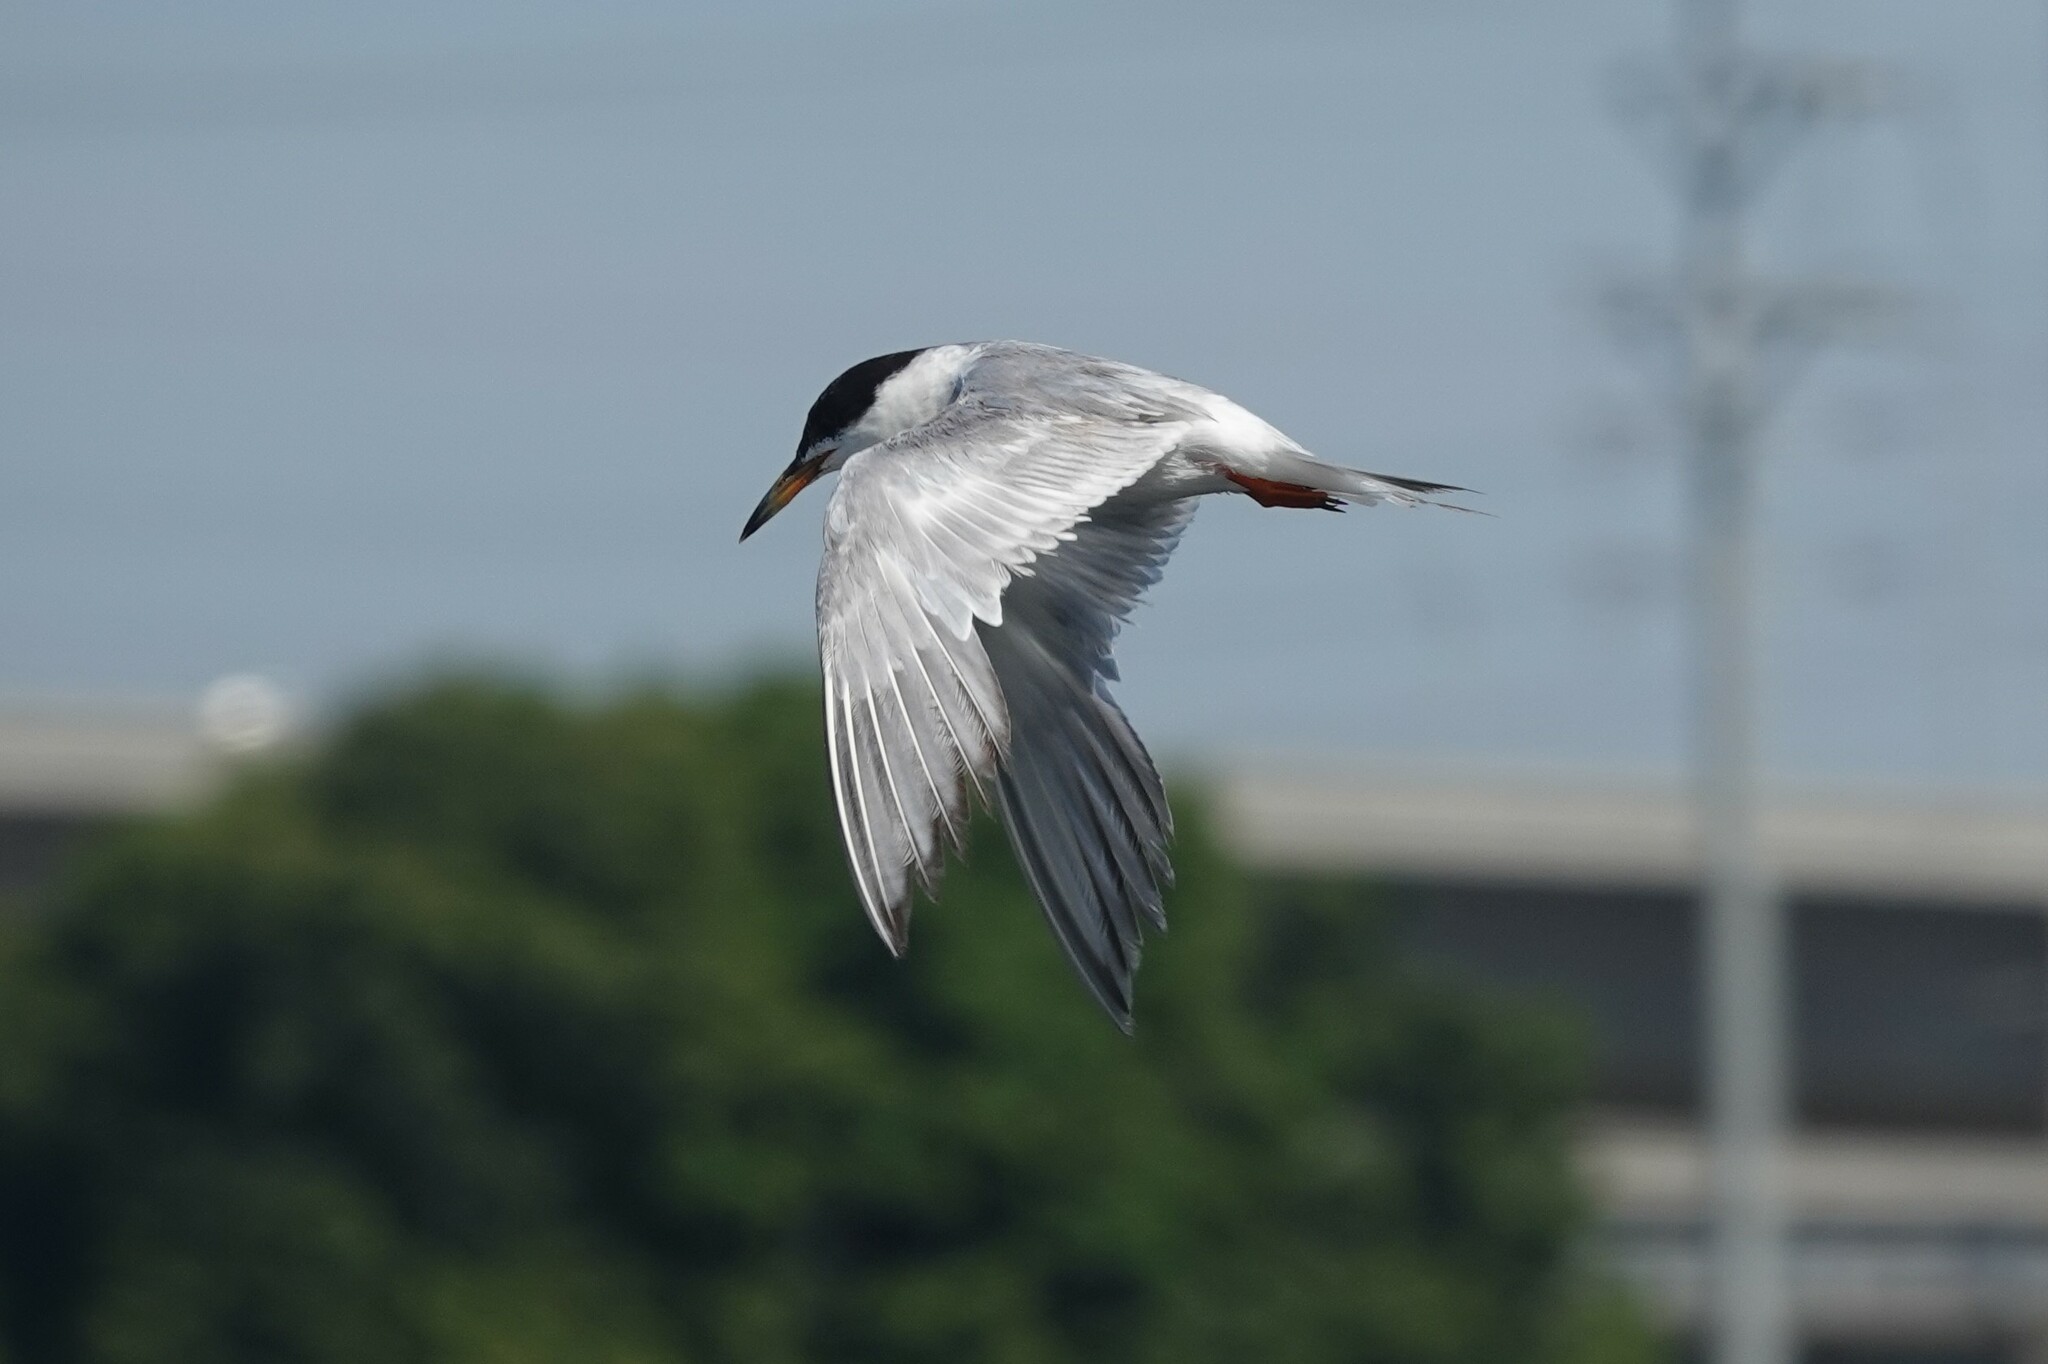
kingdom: Animalia
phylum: Chordata
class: Aves
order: Charadriiformes
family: Laridae
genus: Sterna
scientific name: Sterna forsteri
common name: Forster's tern
